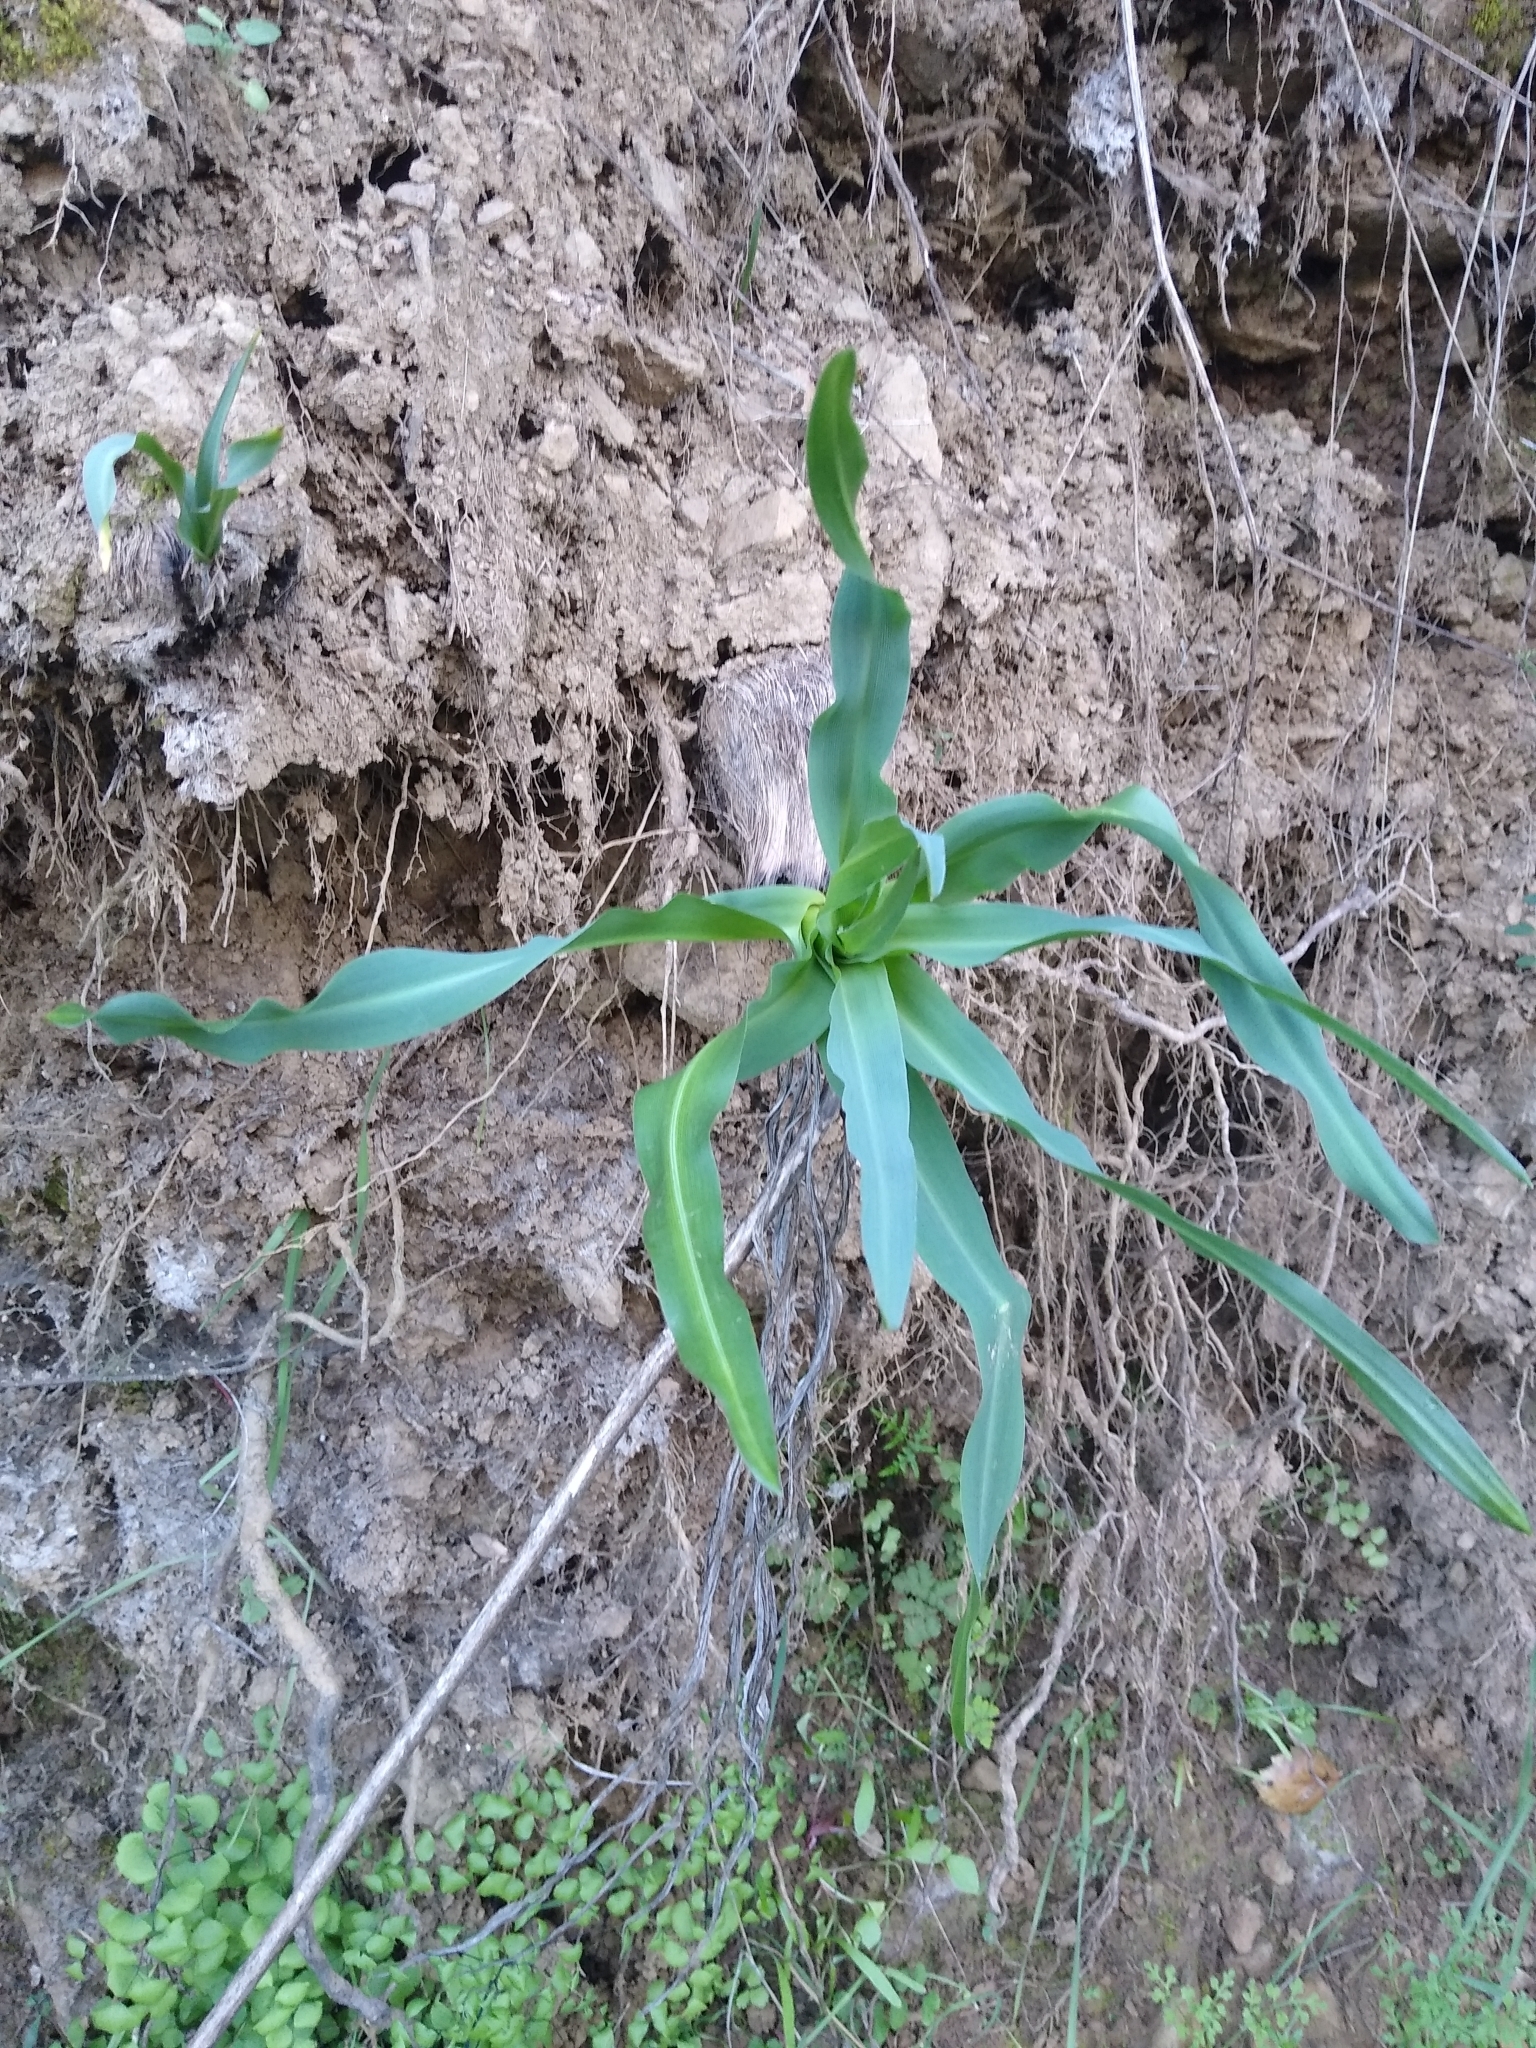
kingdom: Plantae
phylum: Tracheophyta
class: Liliopsida
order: Asparagales
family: Asparagaceae
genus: Chlorogalum
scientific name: Chlorogalum pomeridianum
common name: Amole
